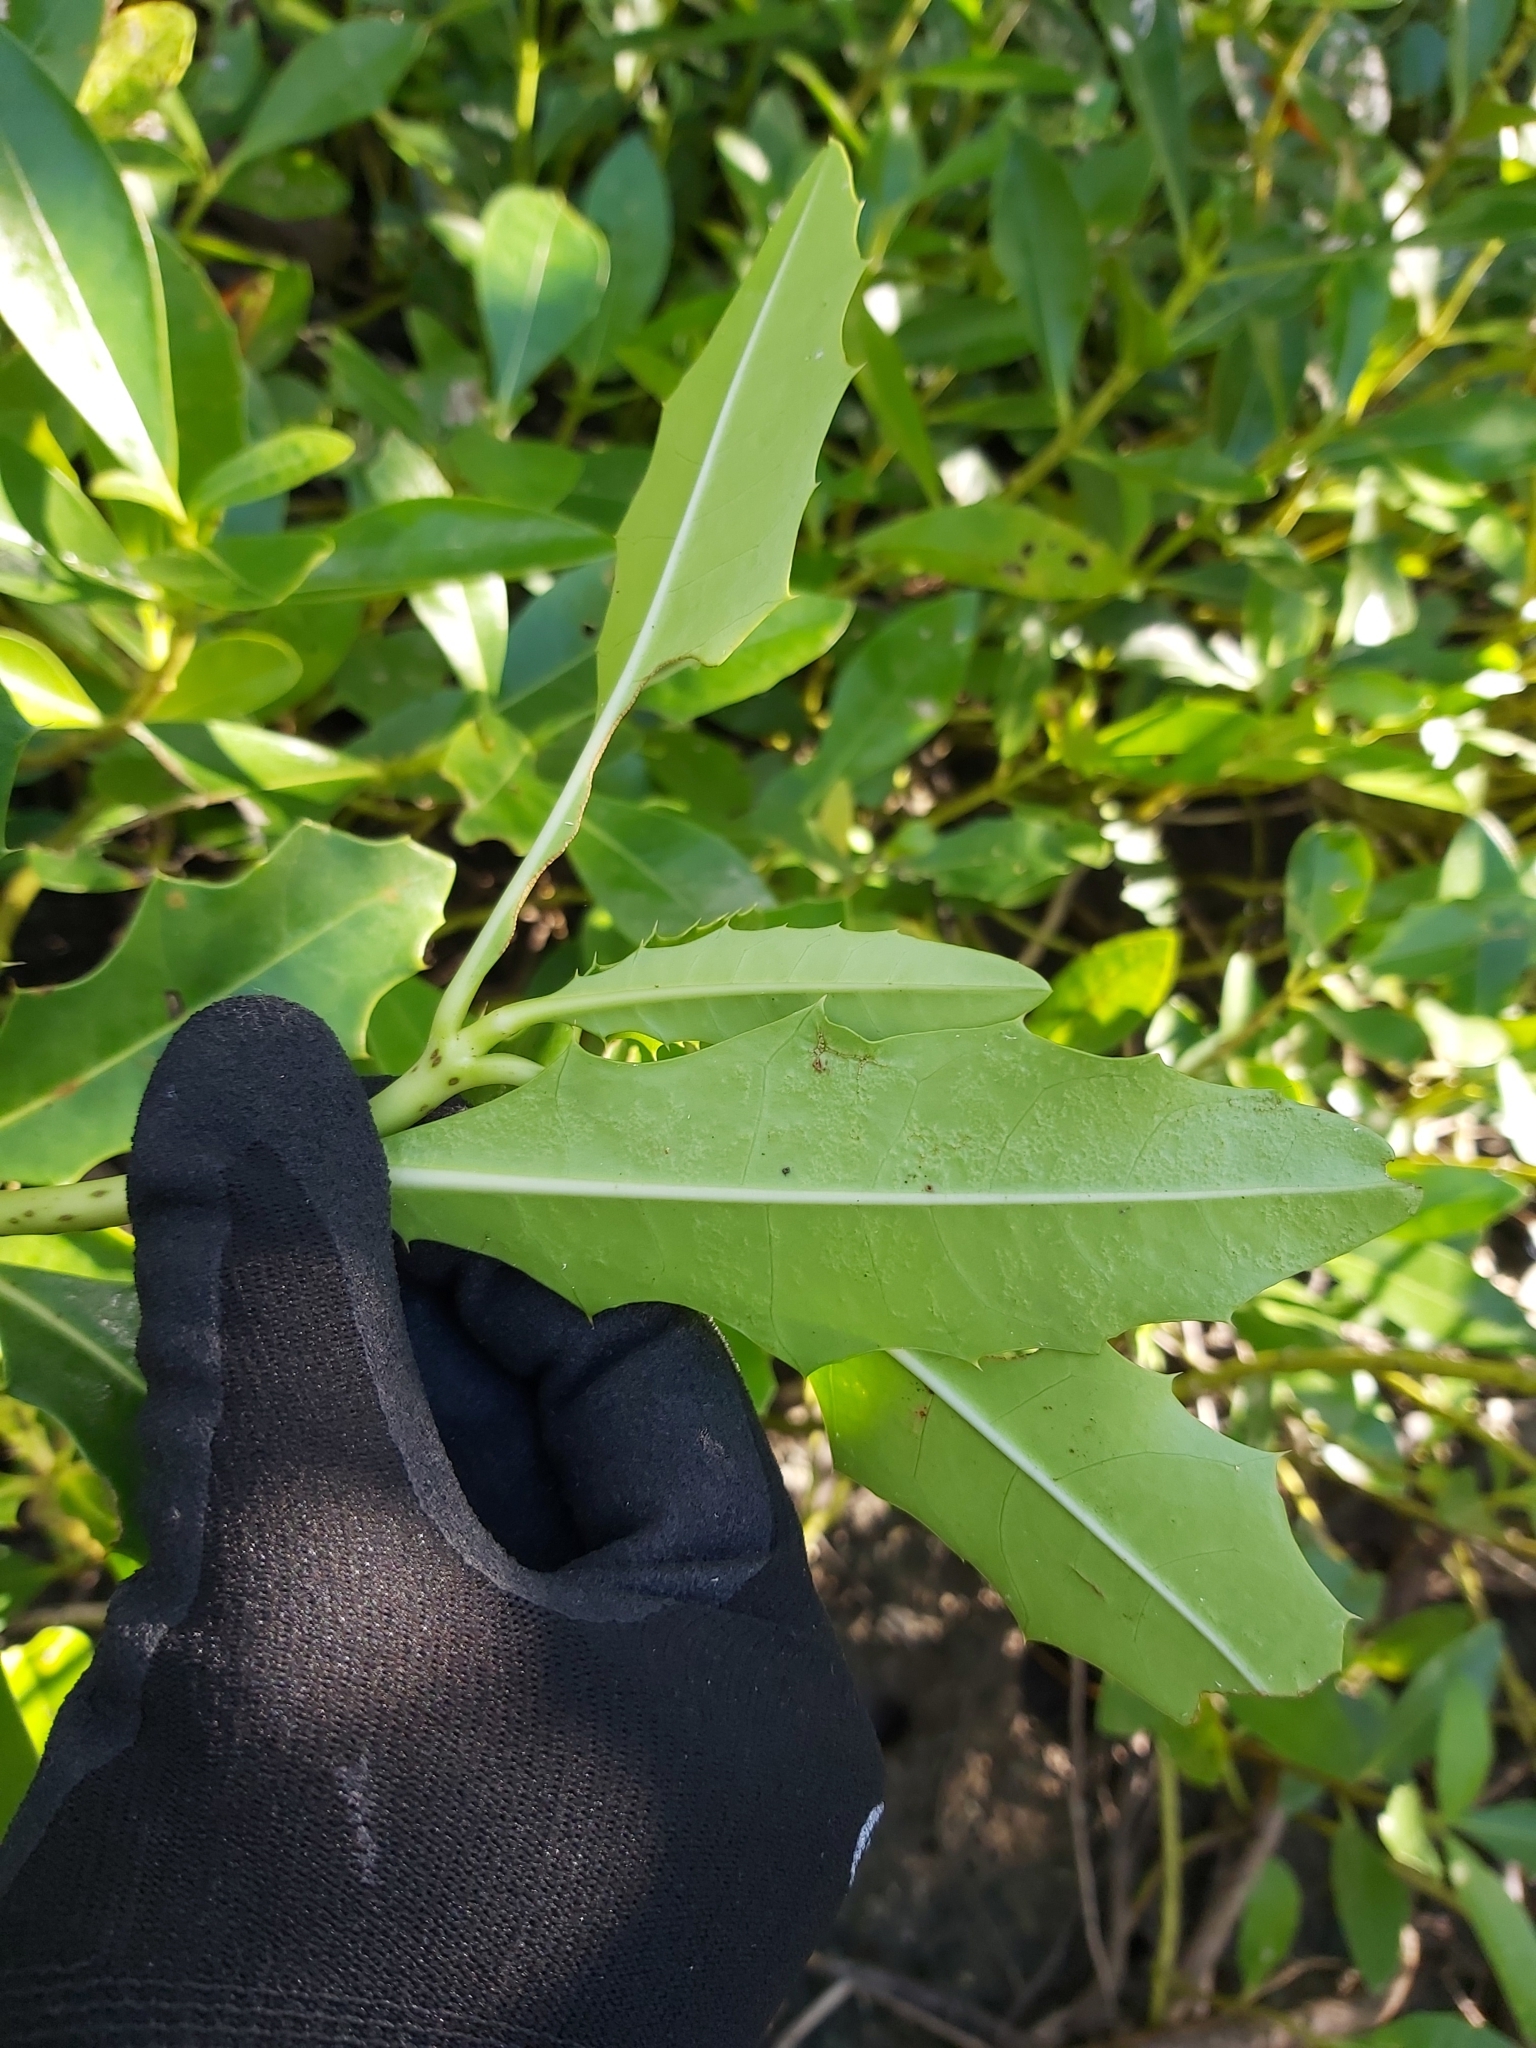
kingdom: Plantae
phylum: Tracheophyta
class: Magnoliopsida
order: Lamiales
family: Acanthaceae
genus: Acanthus
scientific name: Acanthus ilicifolius
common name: Holy mangrove
